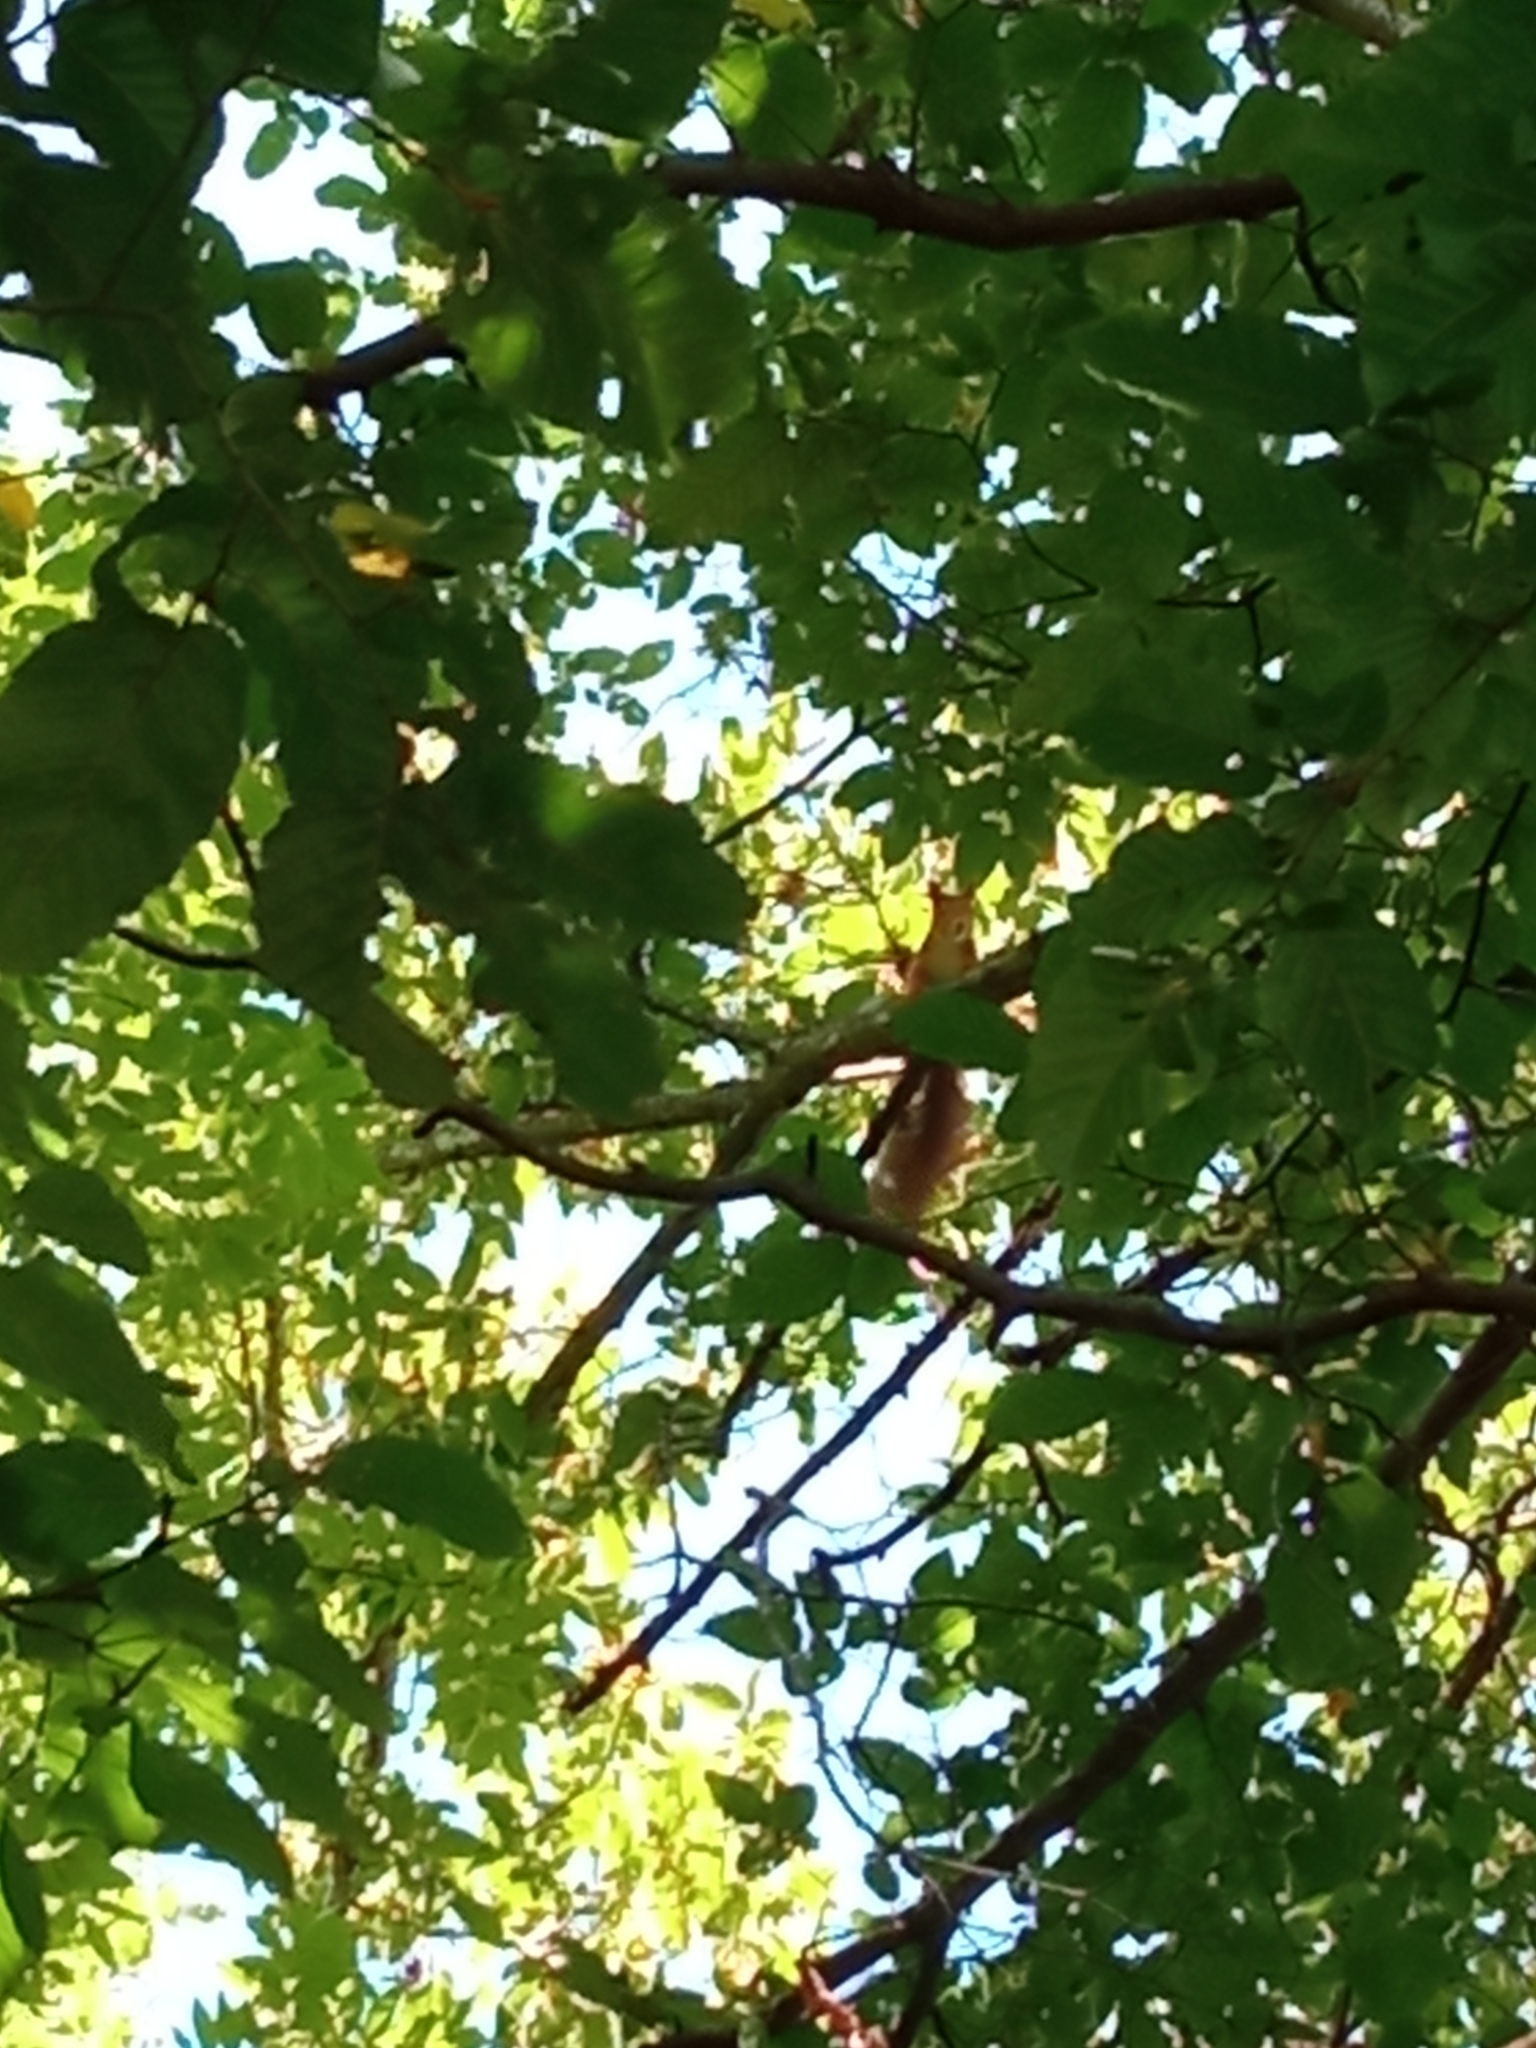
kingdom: Animalia
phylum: Chordata
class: Mammalia
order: Rodentia
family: Sciuridae
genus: Sciurus
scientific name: Sciurus vulgaris
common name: Eurasian red squirrel
